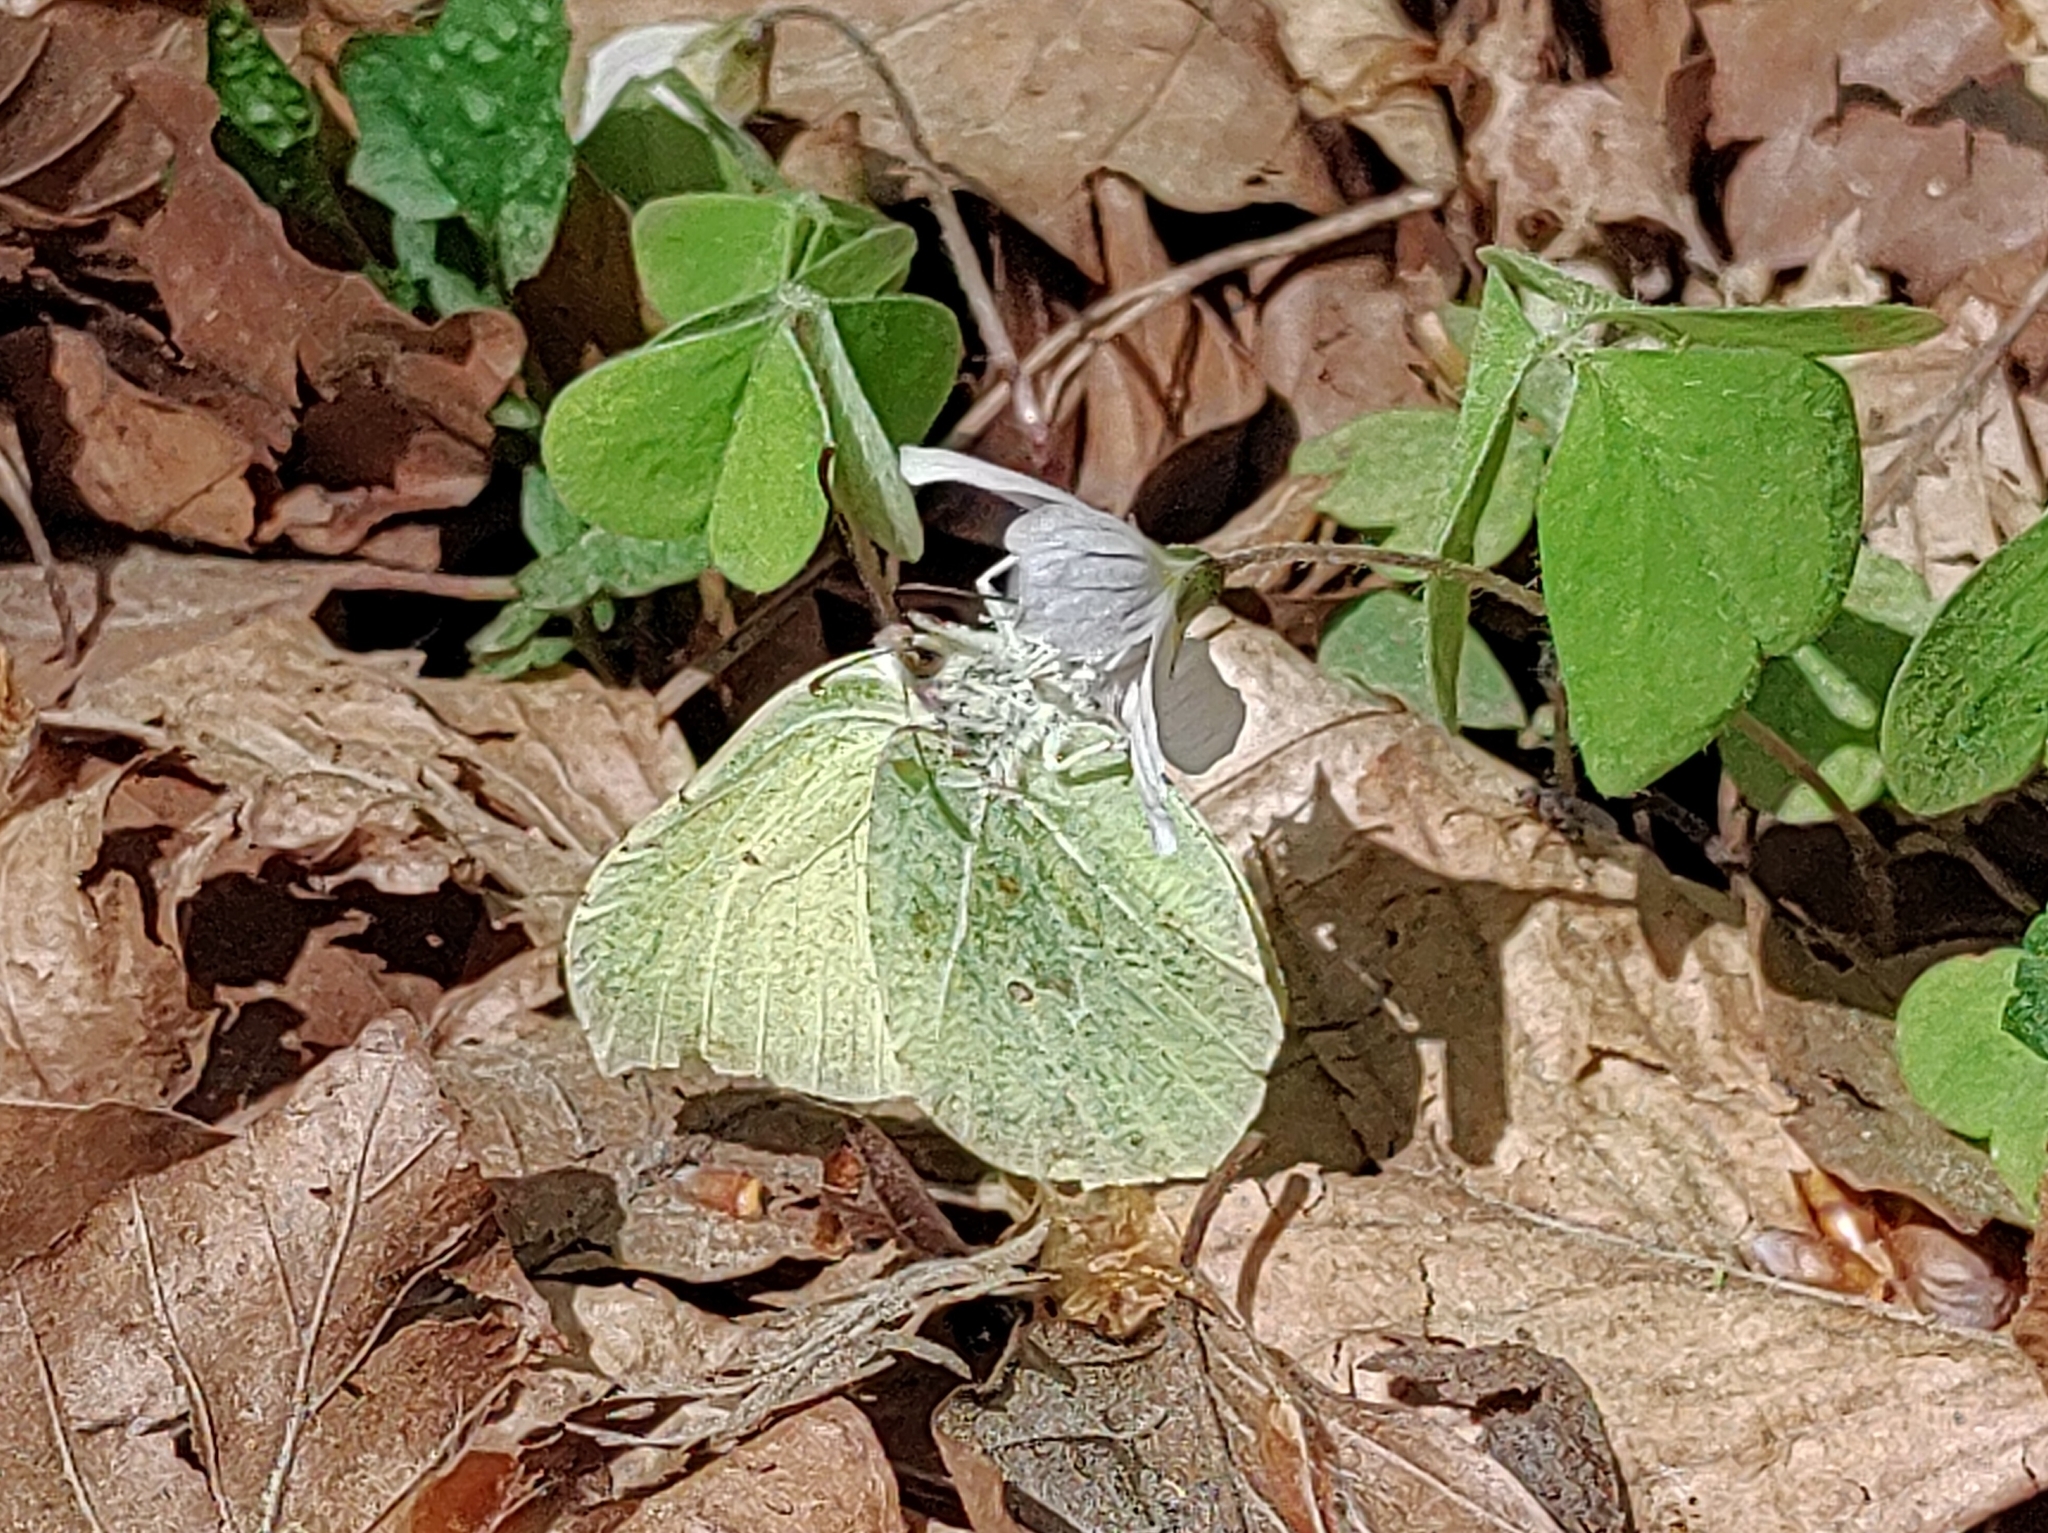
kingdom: Animalia
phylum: Arthropoda
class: Insecta
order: Lepidoptera
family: Pieridae
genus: Gonepteryx
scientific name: Gonepteryx rhamni
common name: Brimstone
